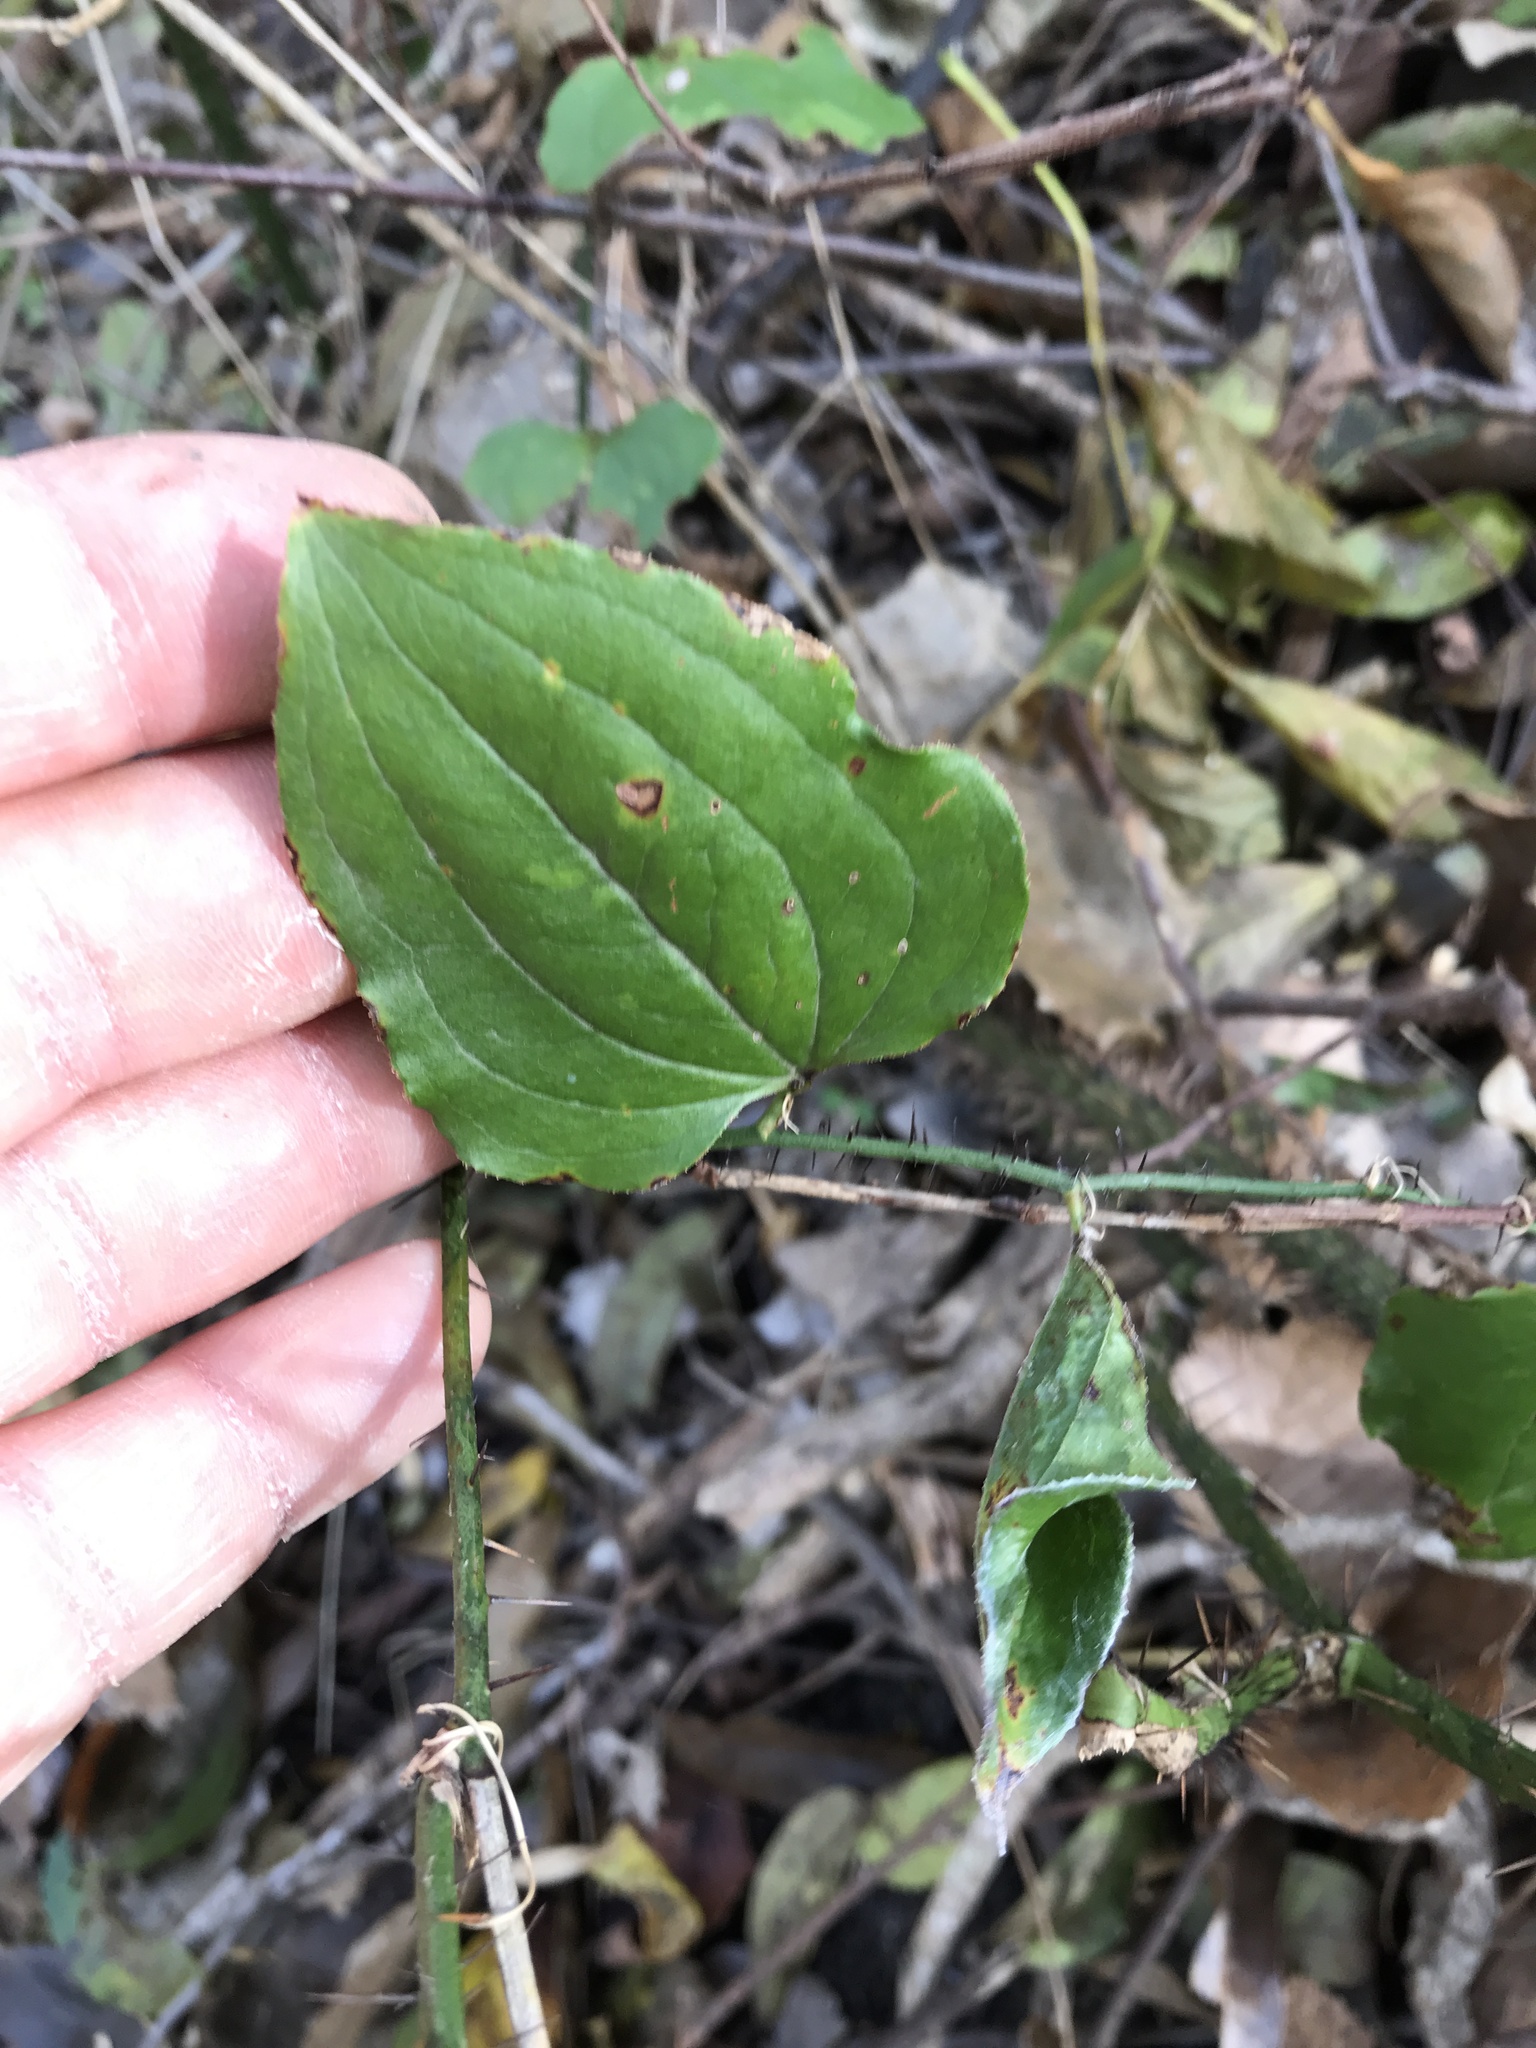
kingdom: Plantae
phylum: Tracheophyta
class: Liliopsida
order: Liliales
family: Smilacaceae
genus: Smilax
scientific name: Smilax tamnoides
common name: Hellfetter
